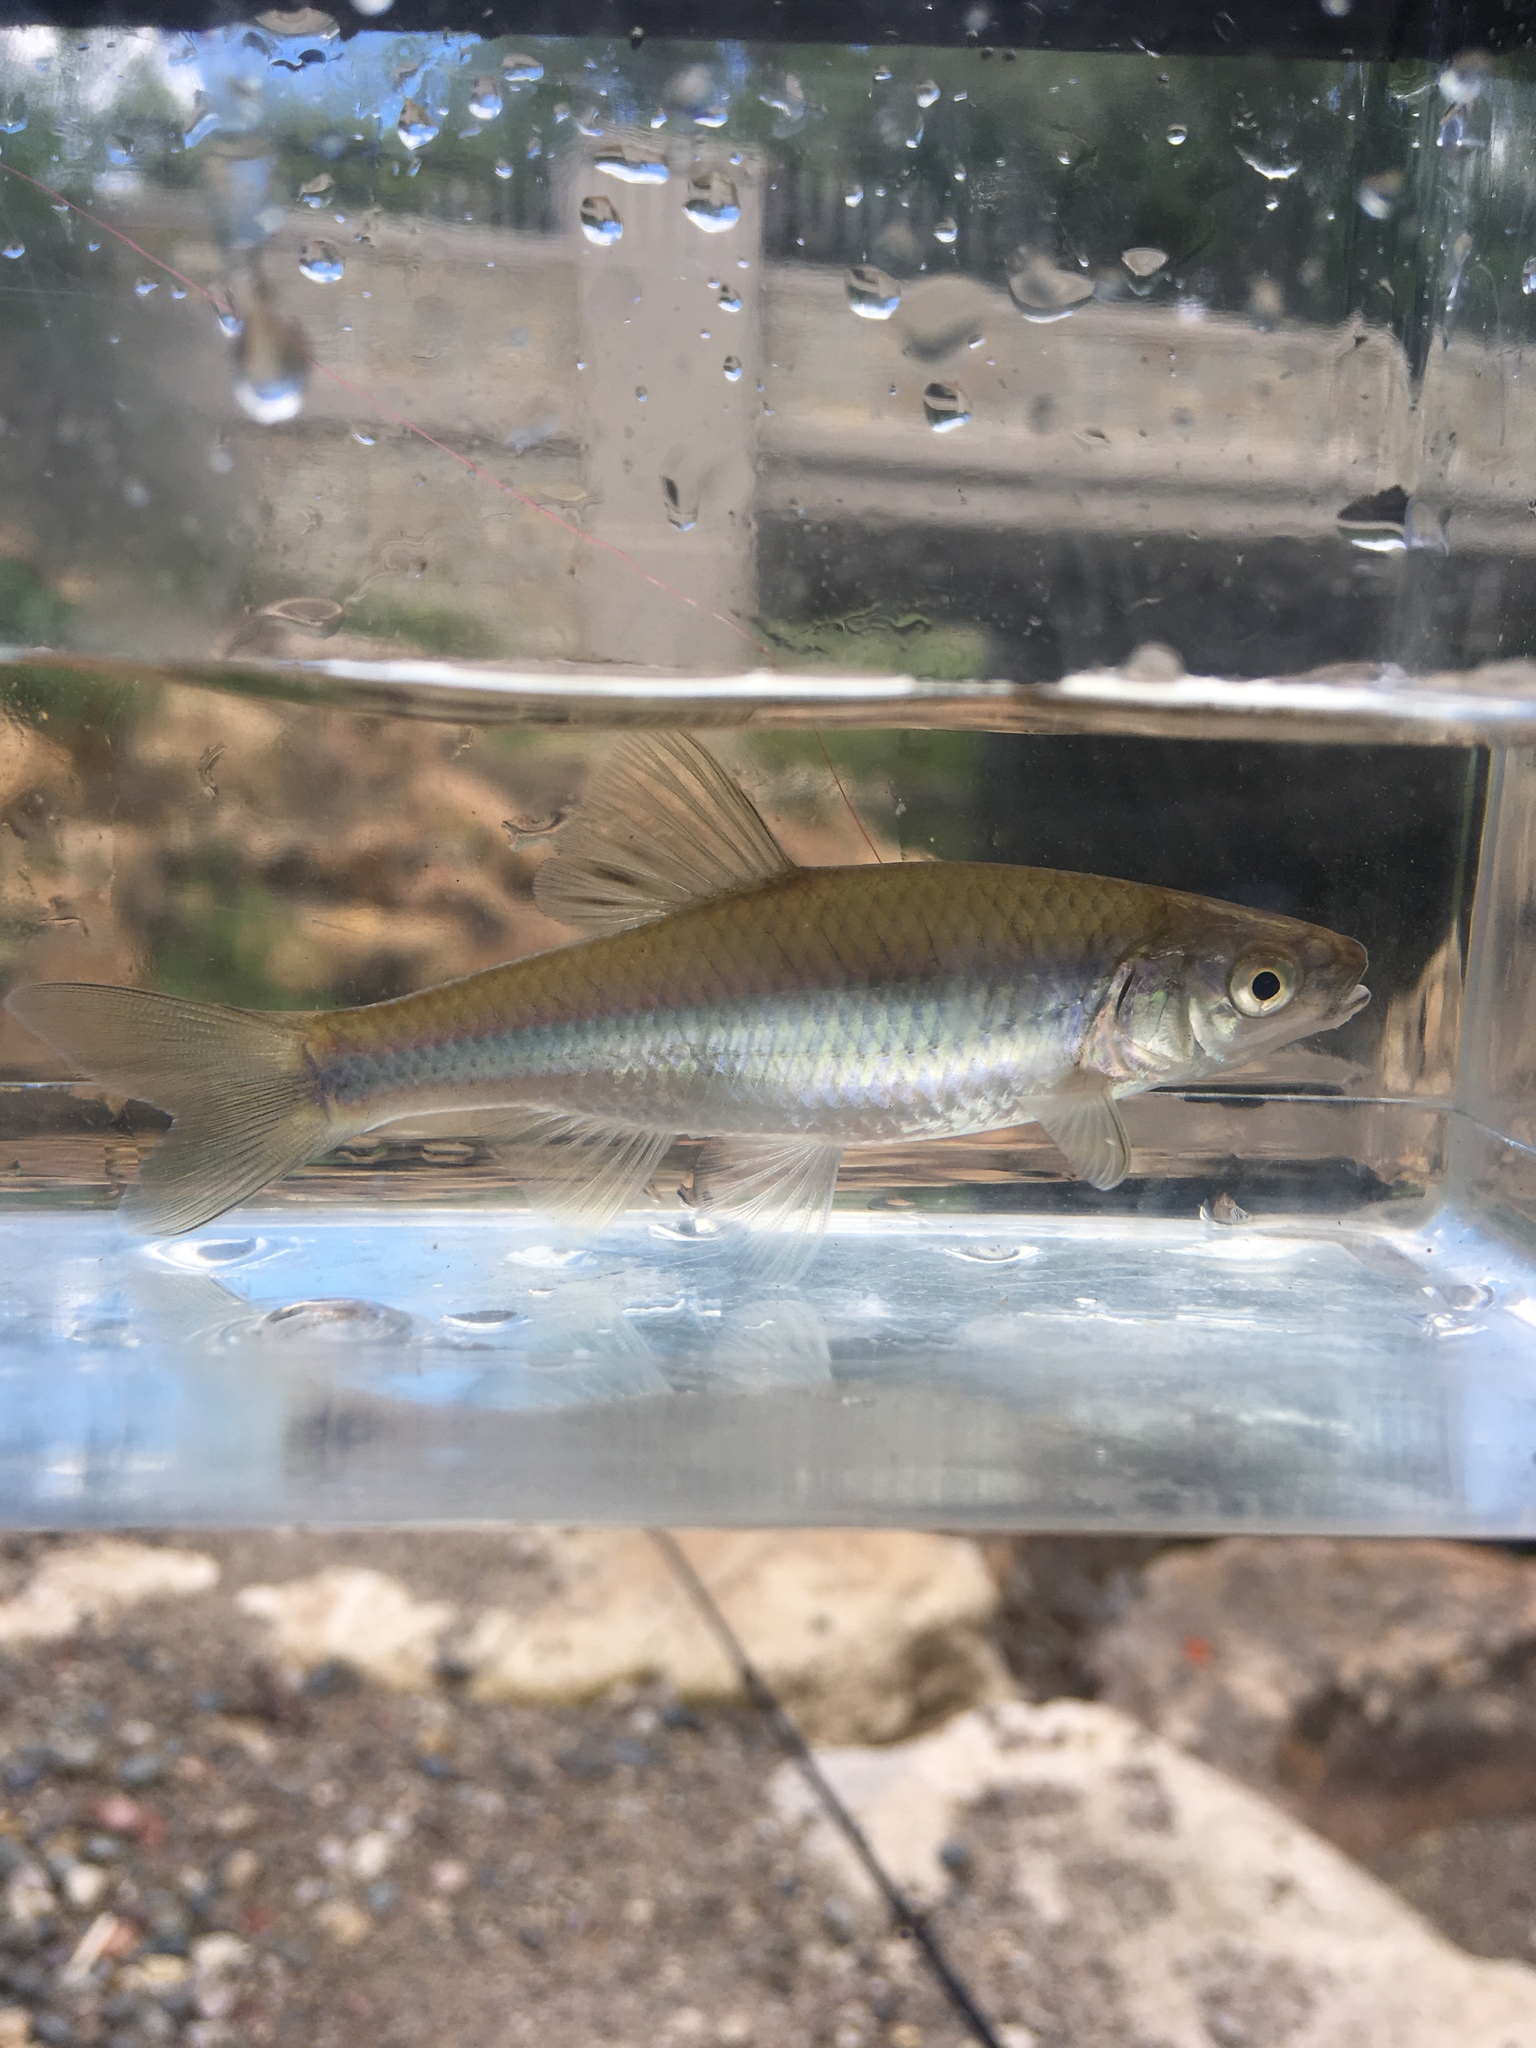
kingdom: Animalia
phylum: Chordata
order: Cypriniformes
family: Cyprinidae
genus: Cyprinella
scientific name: Cyprinella spiloptera
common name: Spotfin shiner
